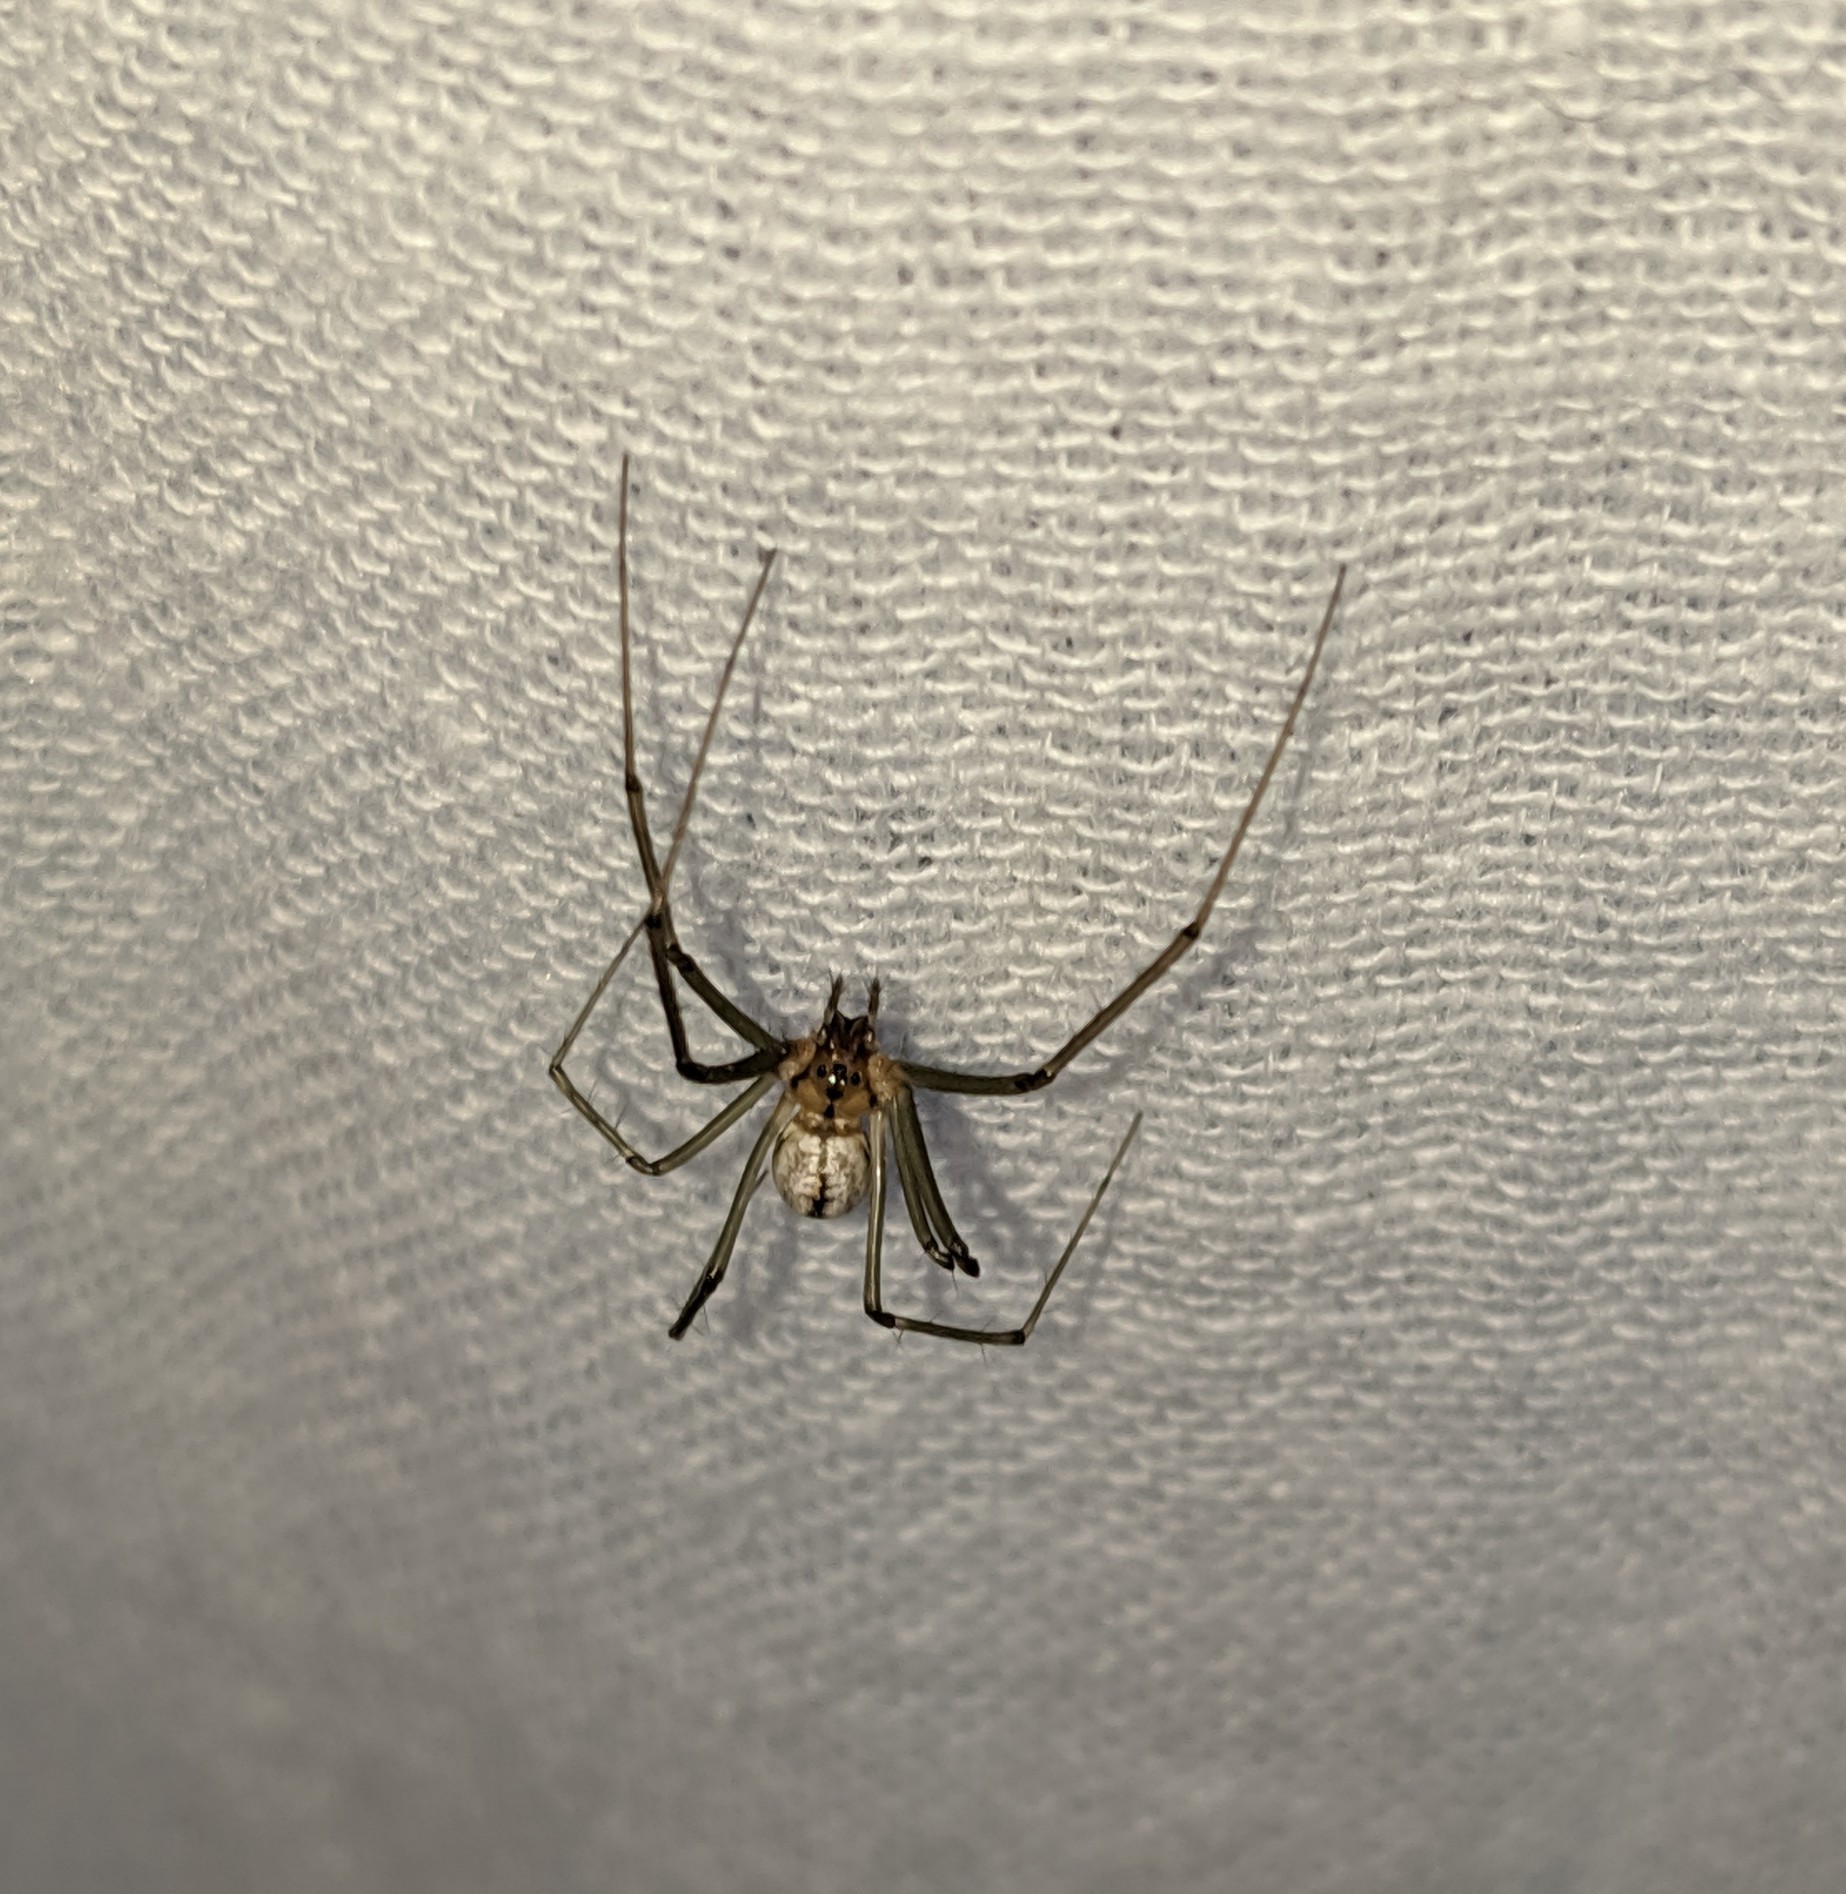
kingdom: Animalia
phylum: Arthropoda
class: Arachnida
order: Araneae
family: Linyphiidae
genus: Neriene
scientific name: Neriene litigiosa
